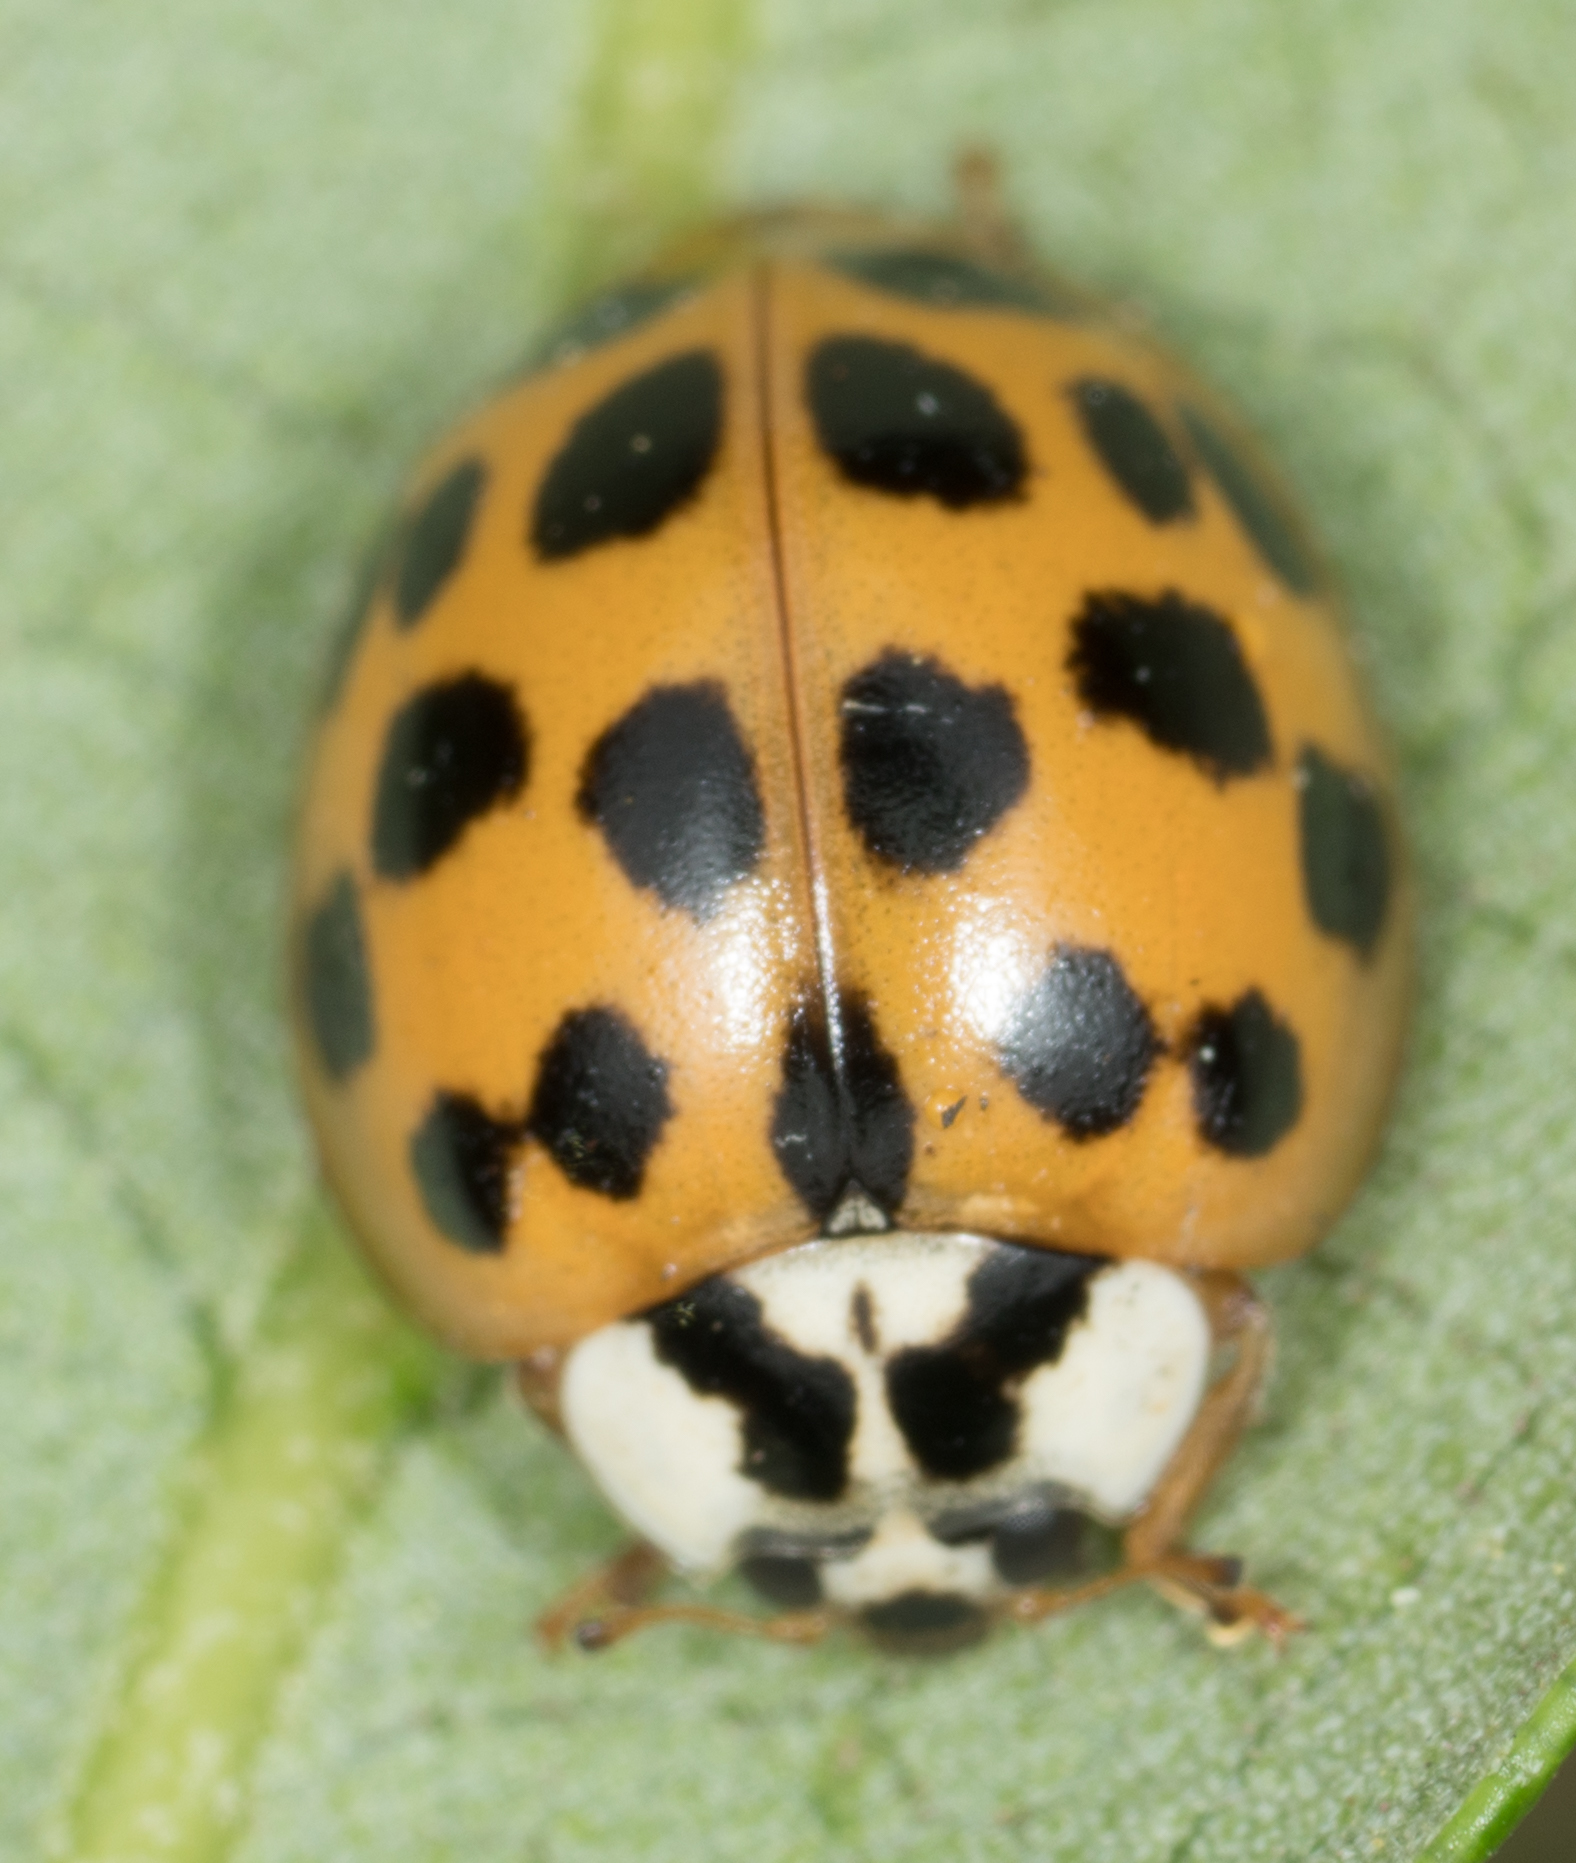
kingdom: Animalia
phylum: Arthropoda
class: Insecta
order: Coleoptera
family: Coccinellidae
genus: Harmonia
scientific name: Harmonia axyridis
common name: Harlequin ladybird
